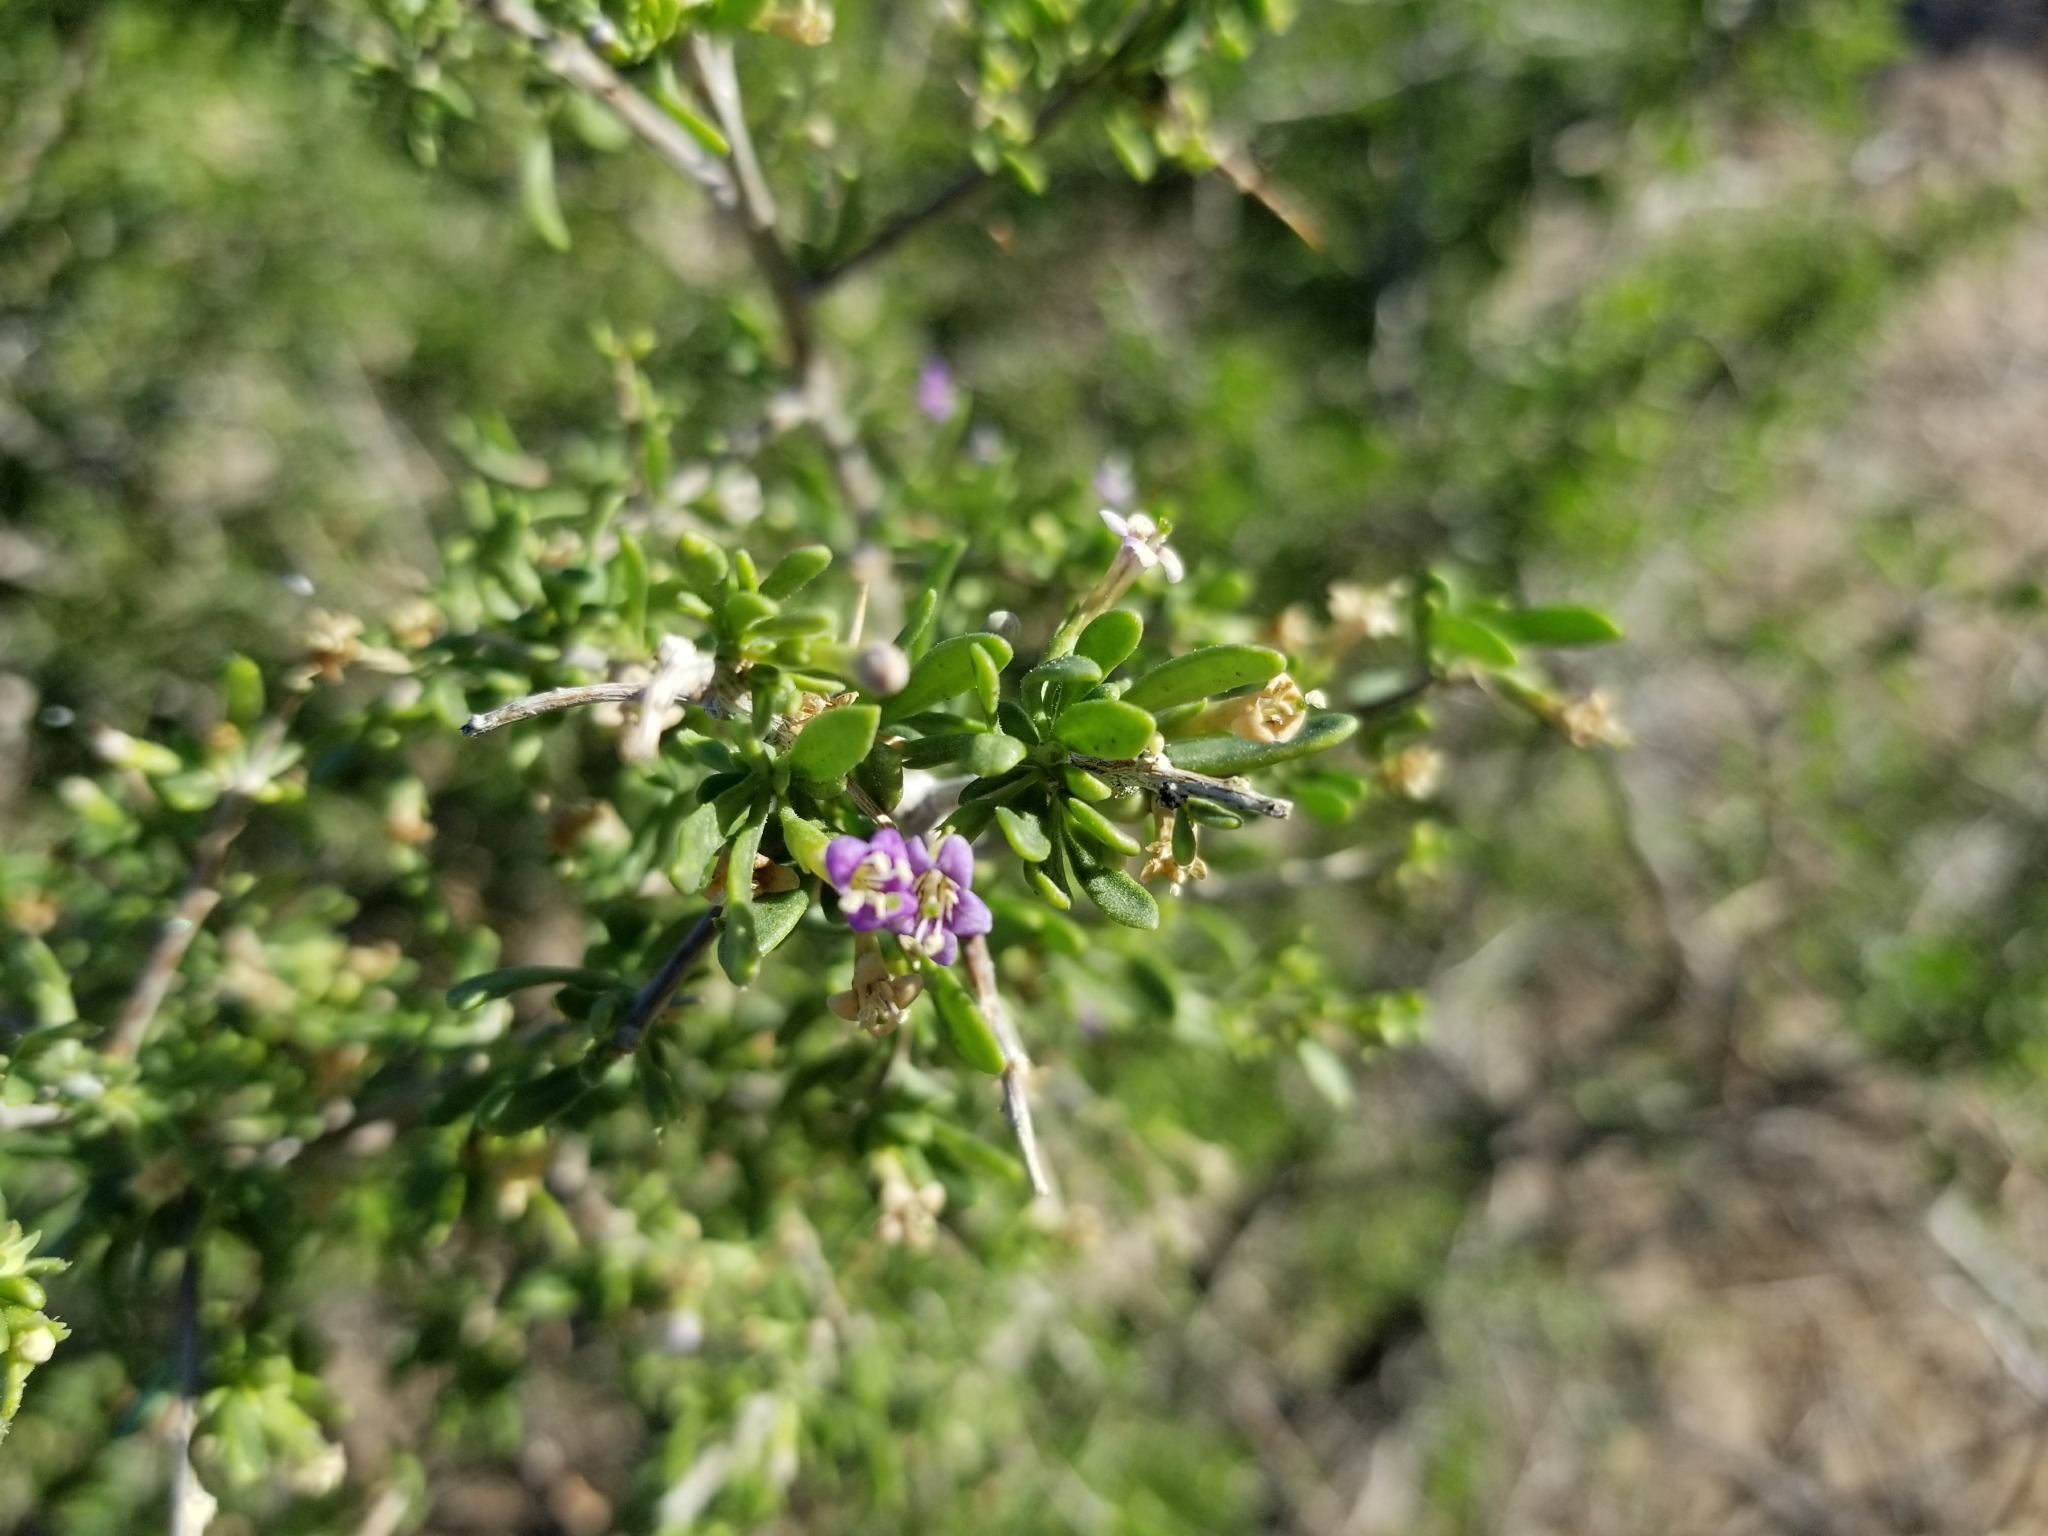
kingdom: Plantae
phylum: Tracheophyta
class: Magnoliopsida
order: Solanales
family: Solanaceae
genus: Lycium
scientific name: Lycium andersonii
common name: Water-jacket
